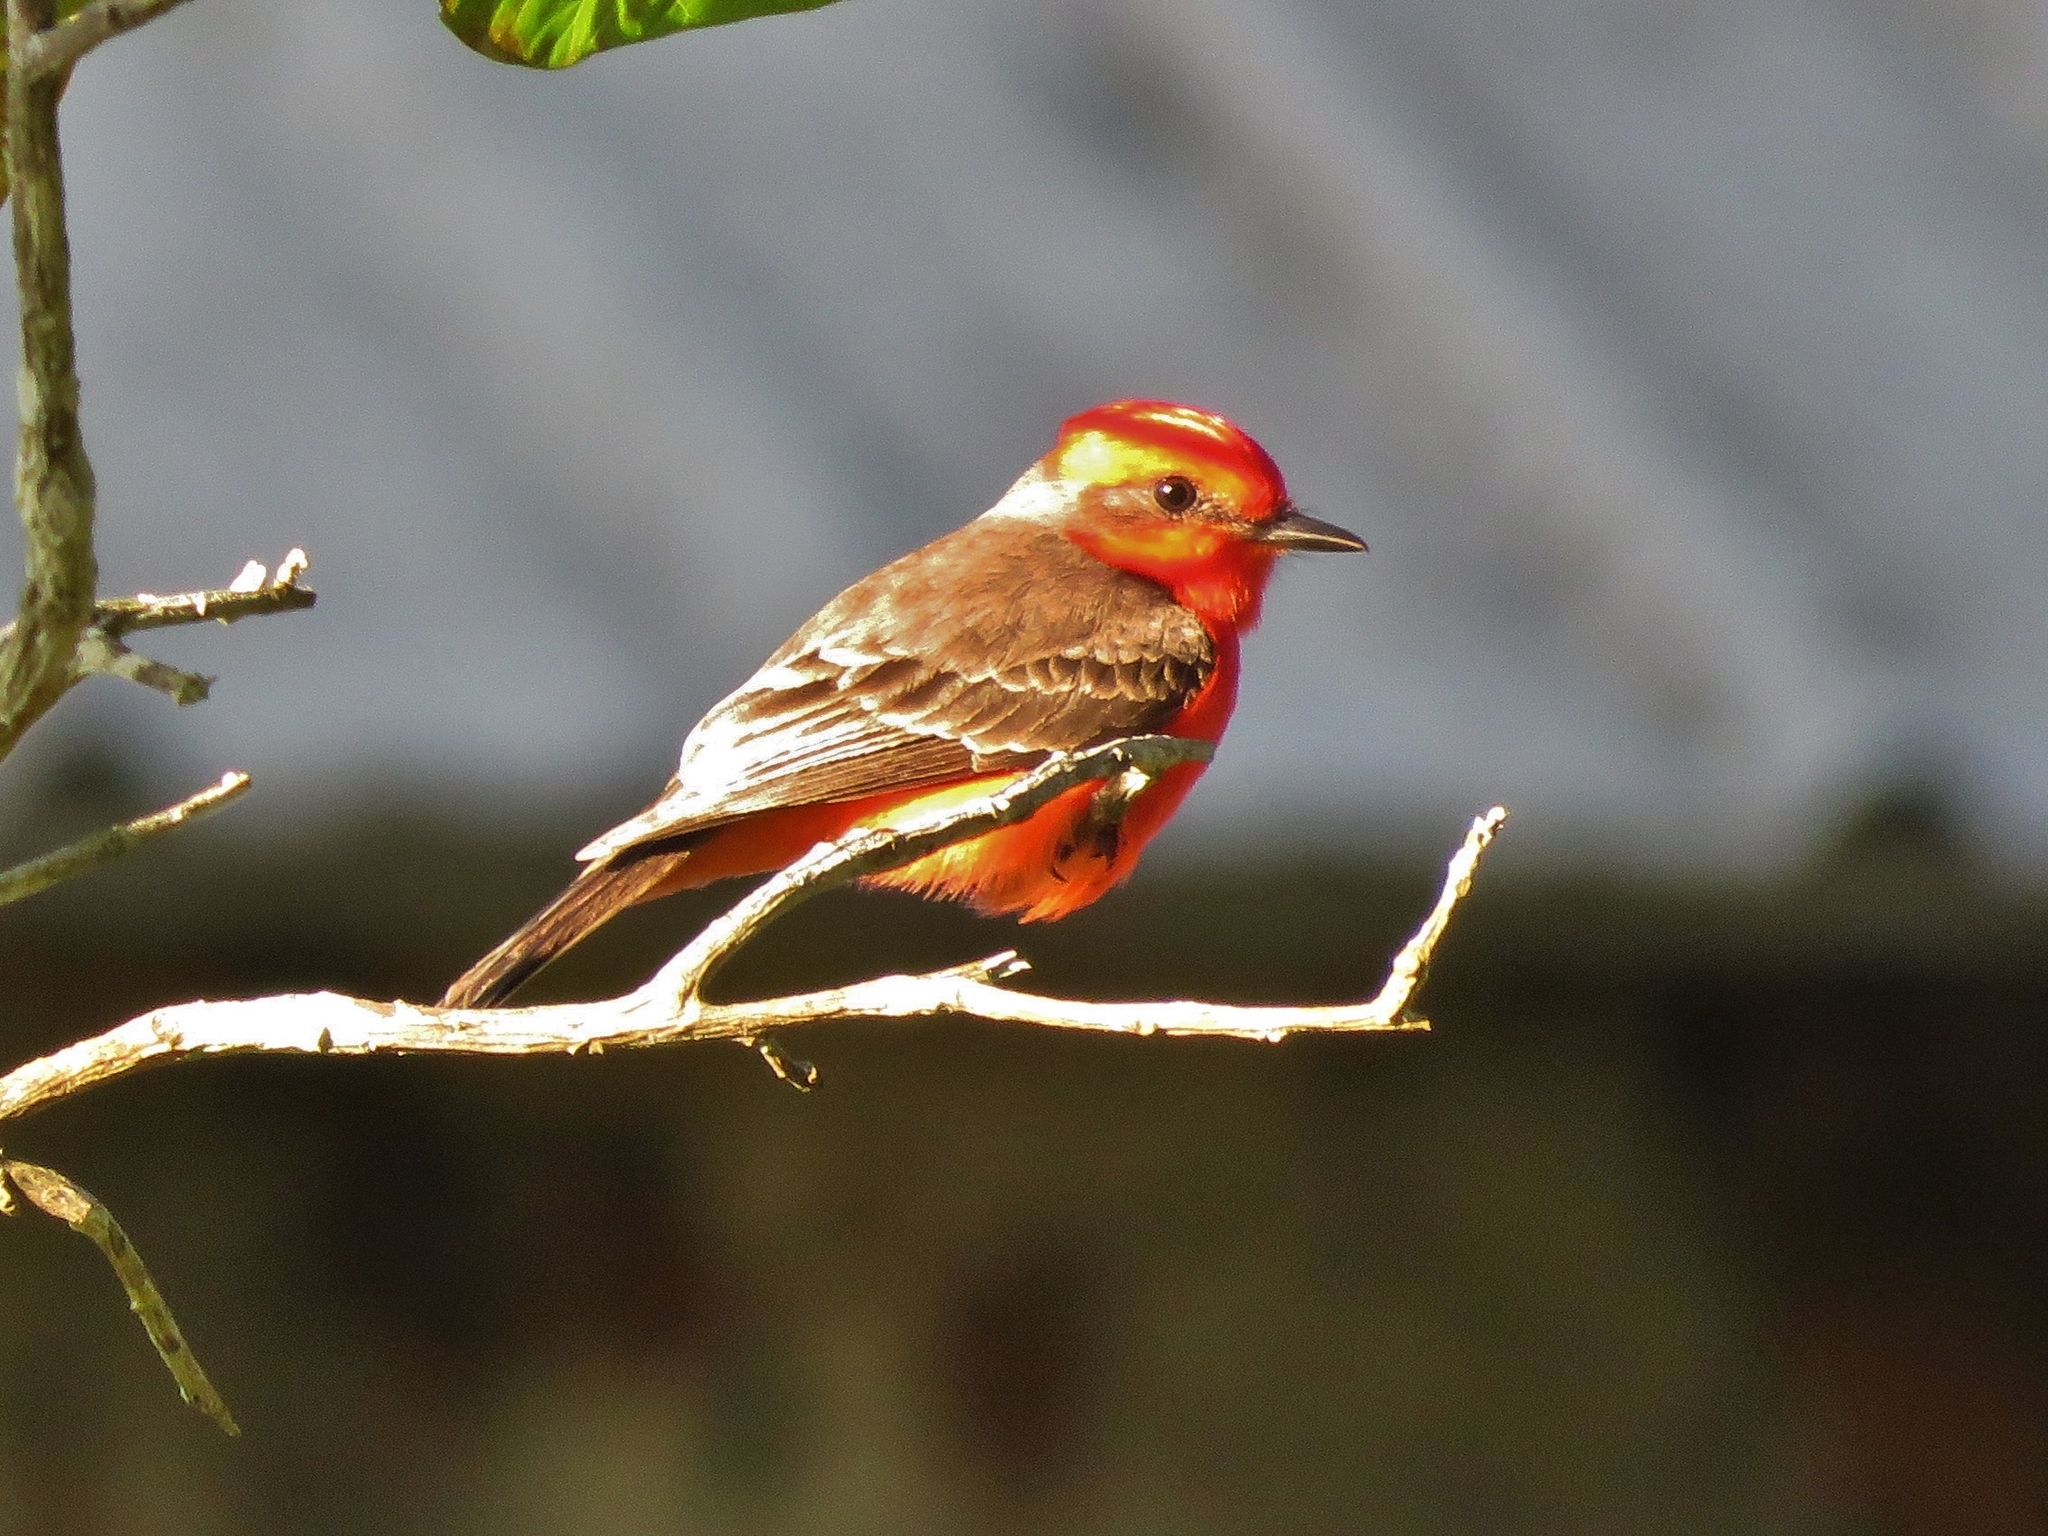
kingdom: Animalia
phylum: Chordata
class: Aves
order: Passeriformes
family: Tyrannidae
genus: Pyrocephalus
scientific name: Pyrocephalus rubinus
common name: Vermilion flycatcher
